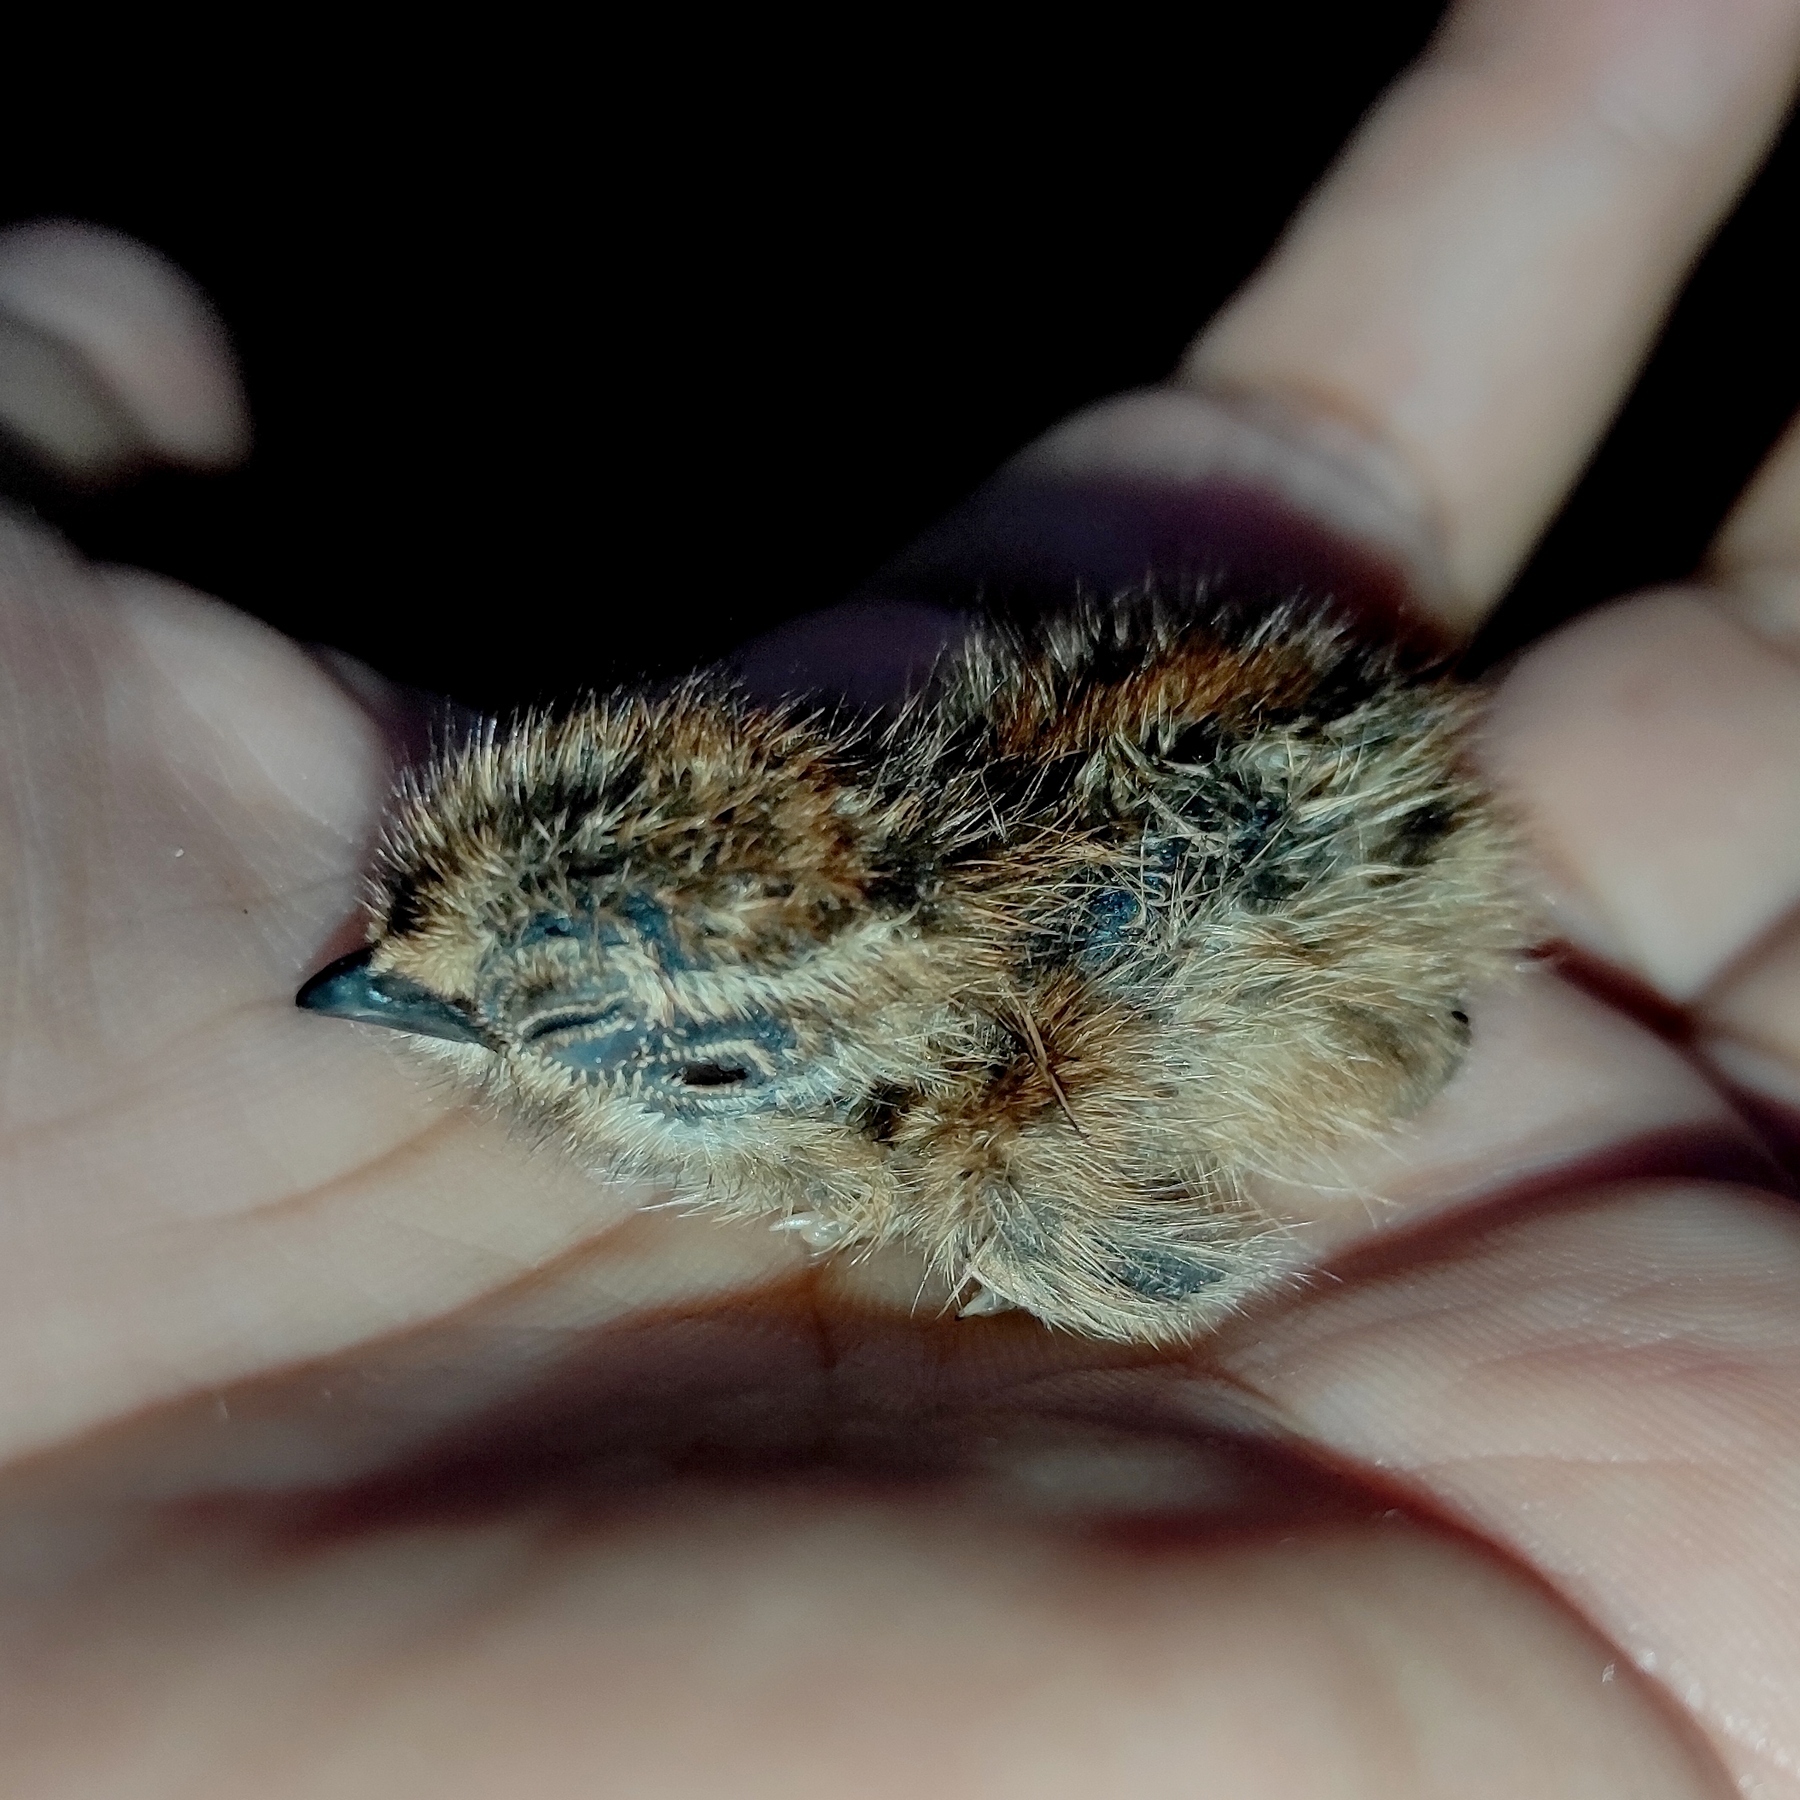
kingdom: Animalia
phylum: Chordata
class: Aves
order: Charadriiformes
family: Turnicidae
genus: Turnix
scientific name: Turnix suscitator
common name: Barred buttonquail
